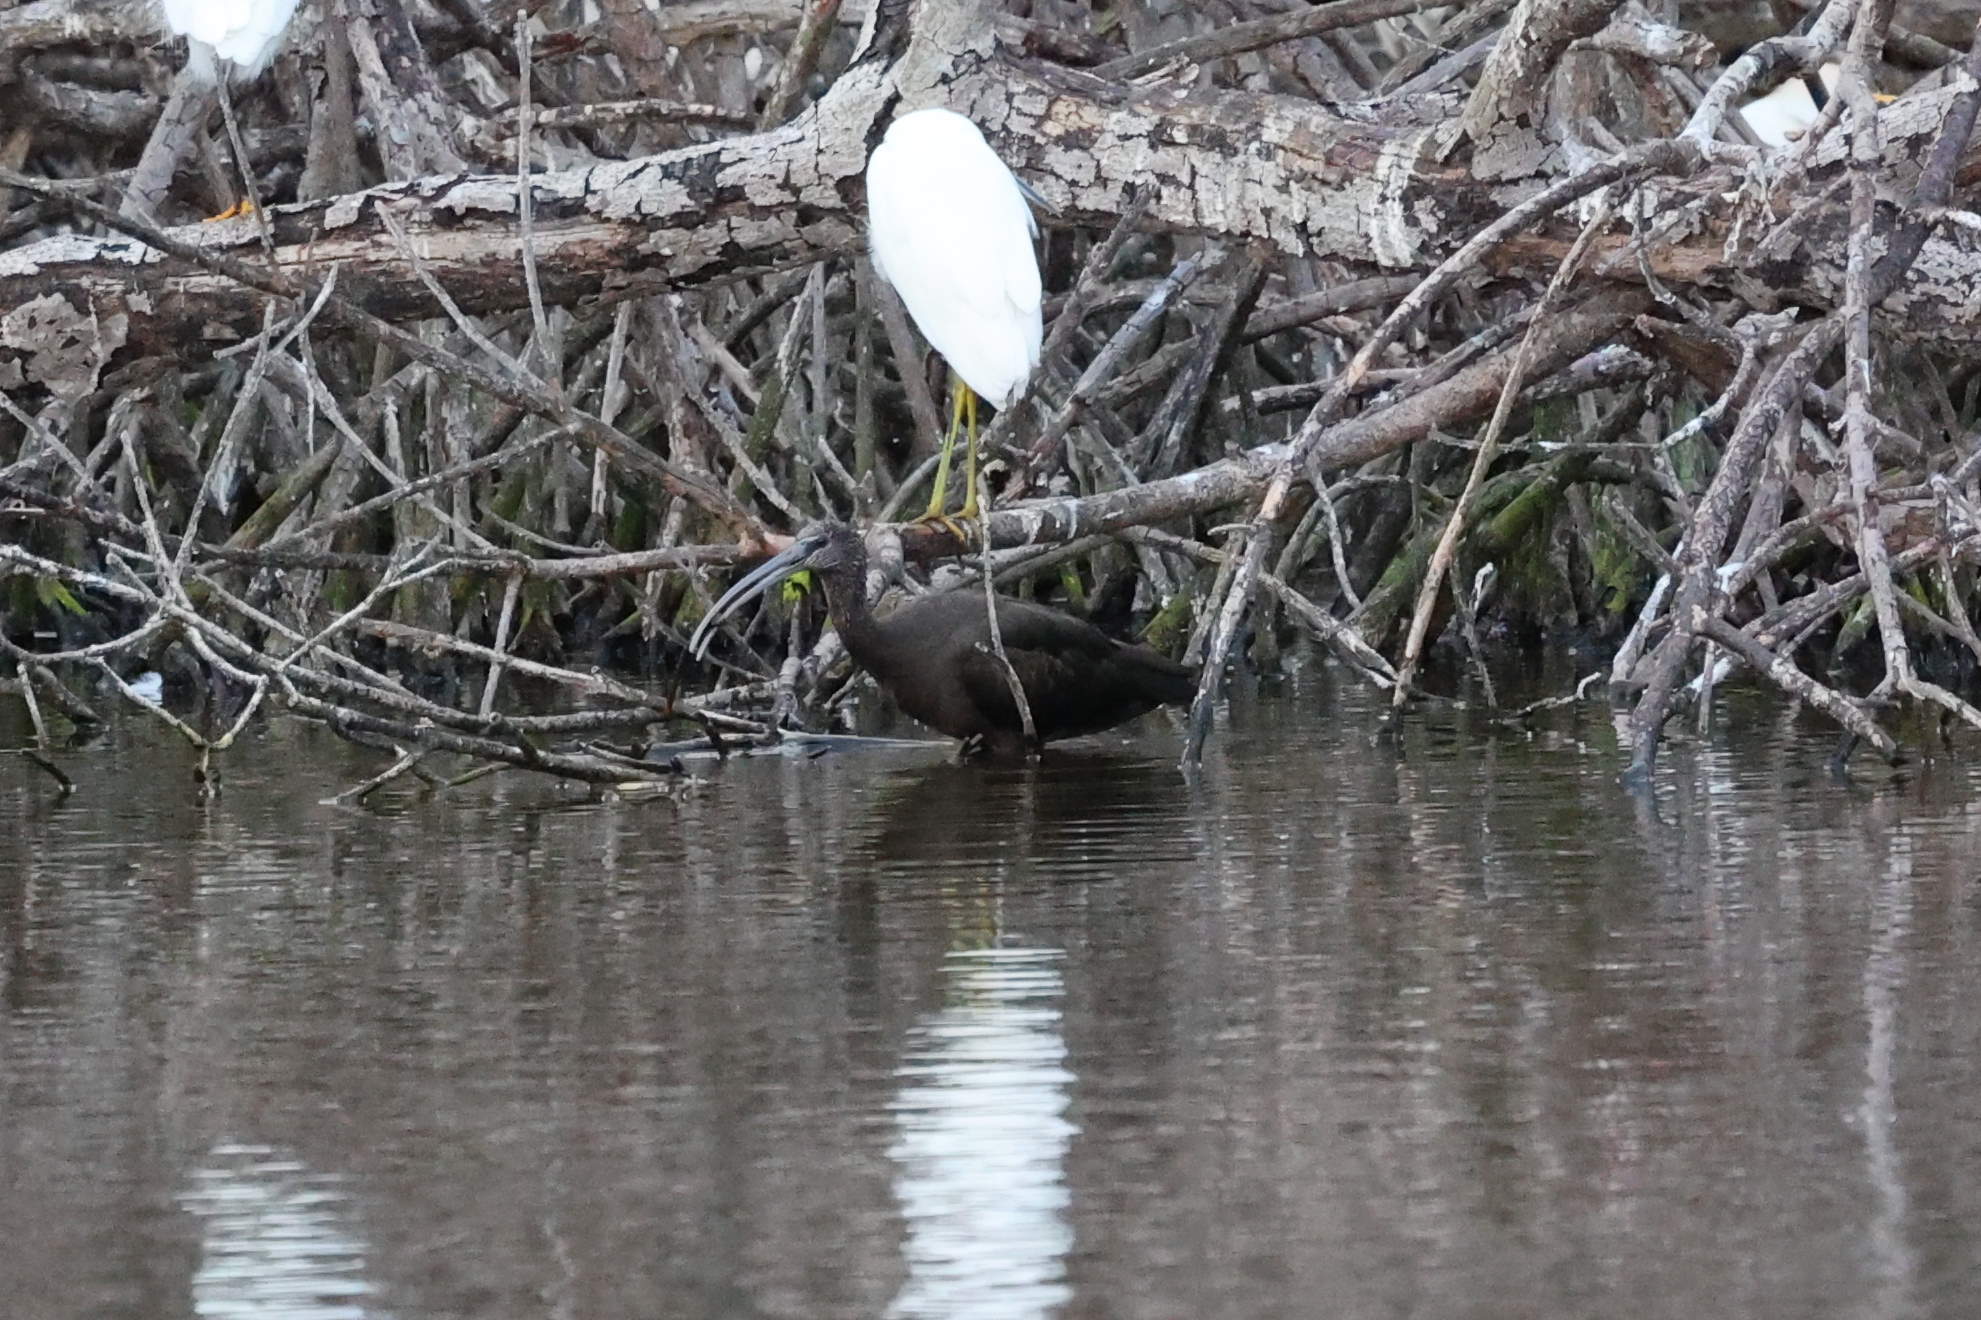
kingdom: Animalia
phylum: Chordata
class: Aves
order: Pelecaniformes
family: Threskiornithidae
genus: Plegadis
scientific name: Plegadis falcinellus
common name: Glossy ibis
